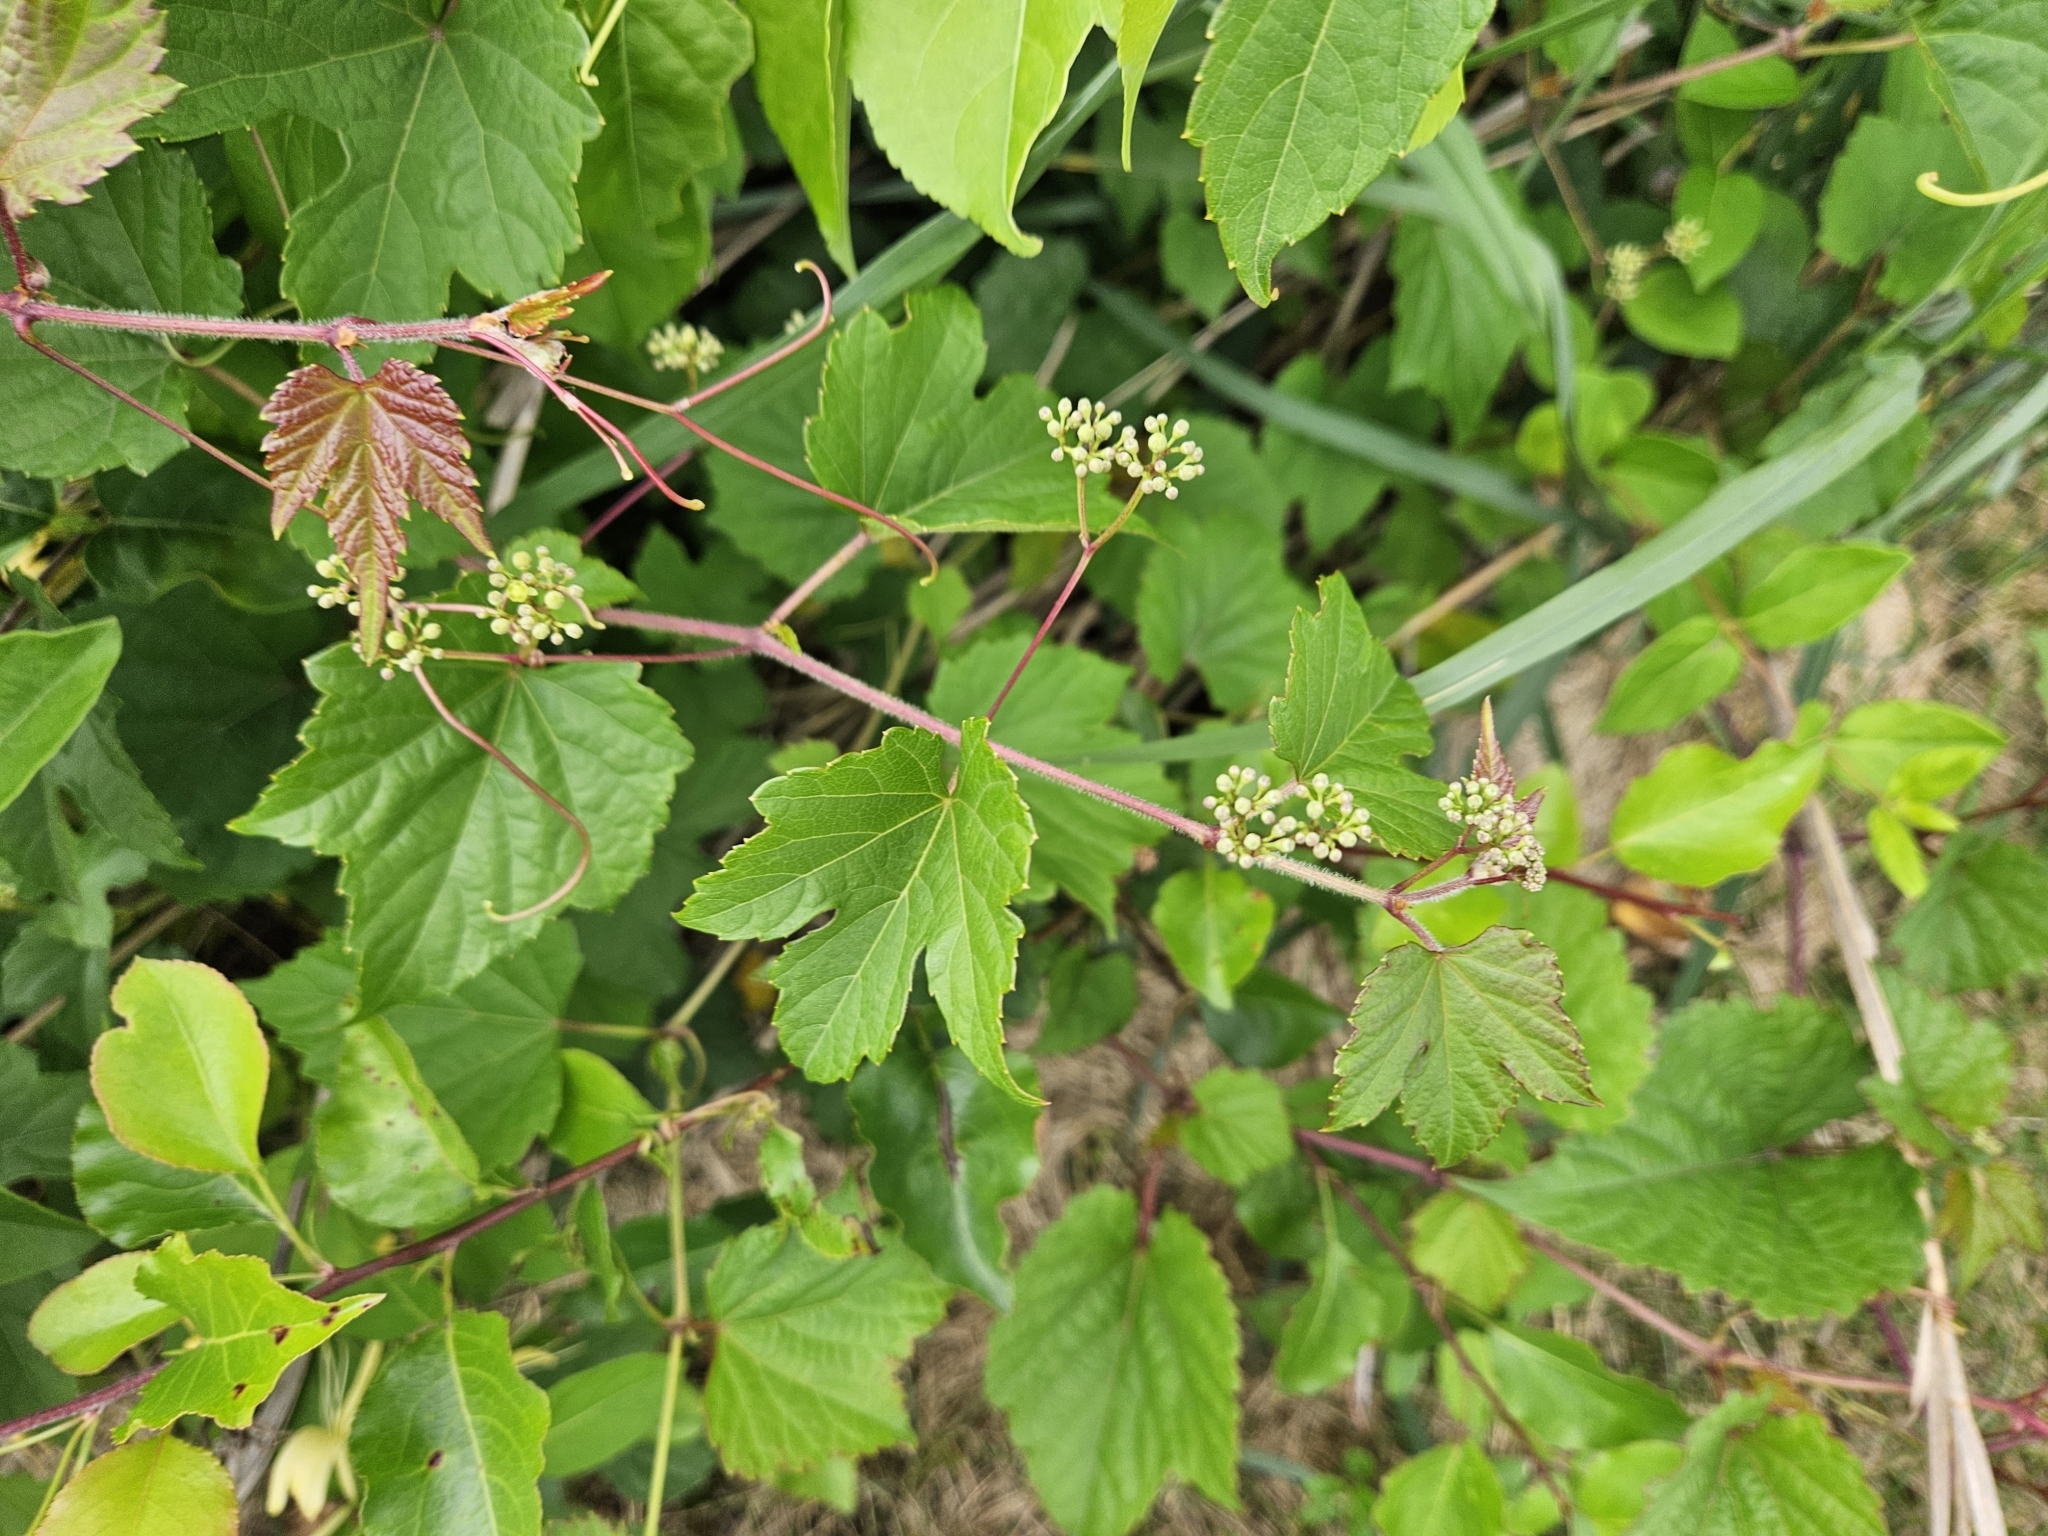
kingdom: Plantae
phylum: Tracheophyta
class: Magnoliopsida
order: Vitales
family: Vitaceae
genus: Ampelopsis
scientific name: Ampelopsis glandulosa
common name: Amur peppervine
